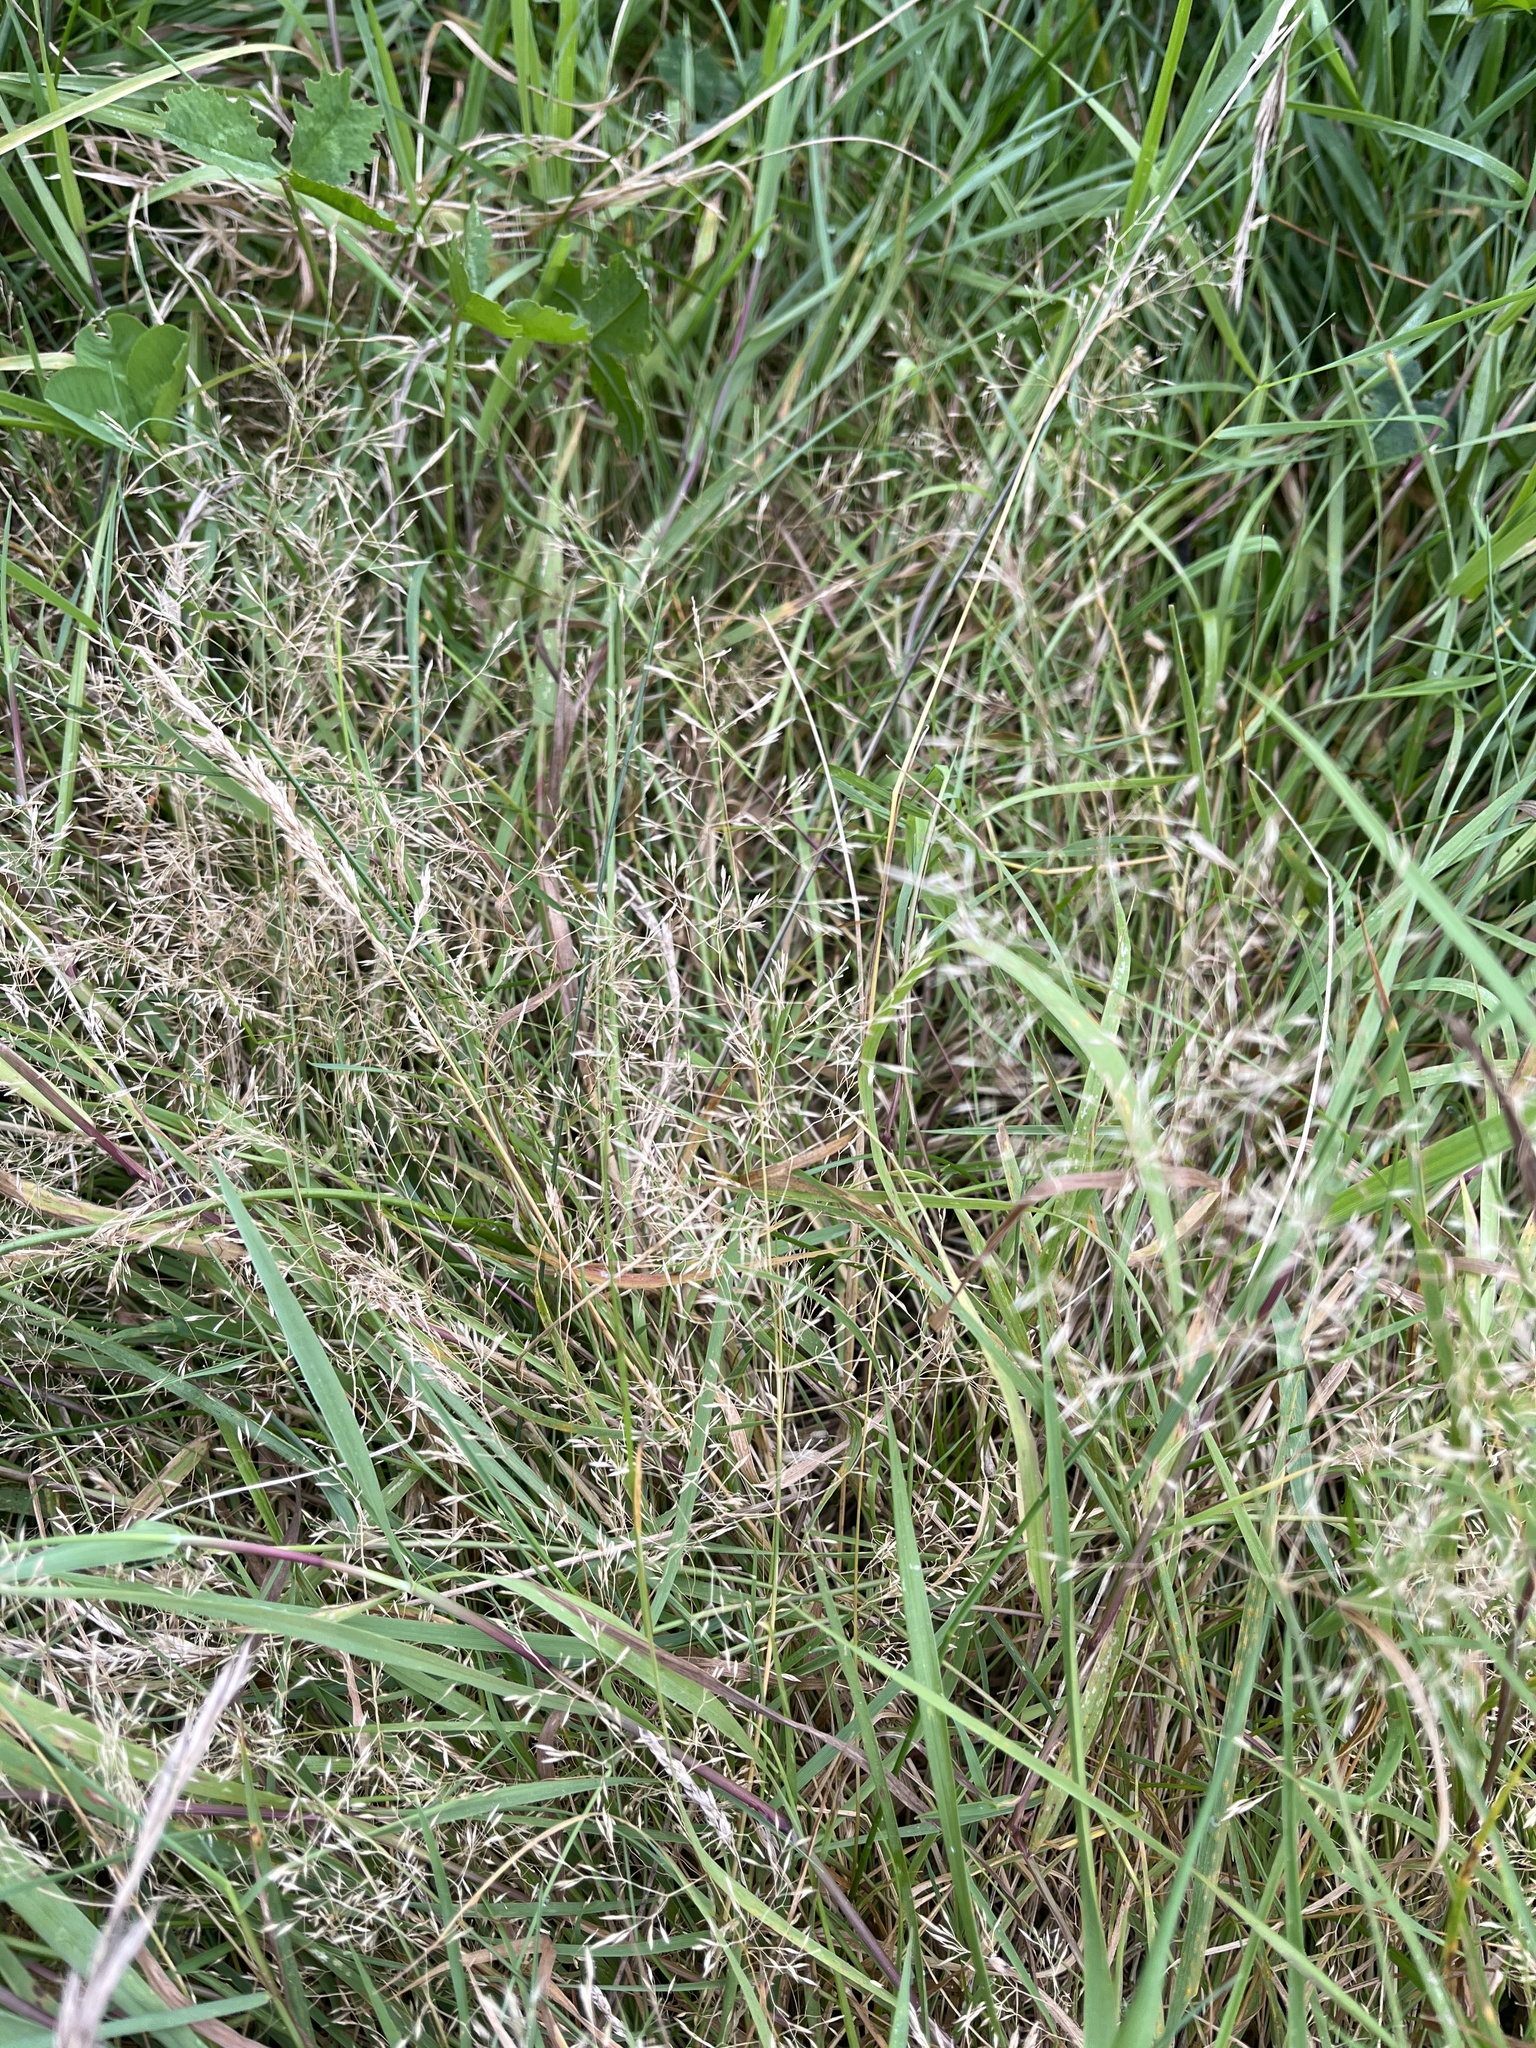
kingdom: Plantae
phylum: Tracheophyta
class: Liliopsida
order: Poales
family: Poaceae
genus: Agrostis
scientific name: Agrostis capillaris
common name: Colonial bentgrass
